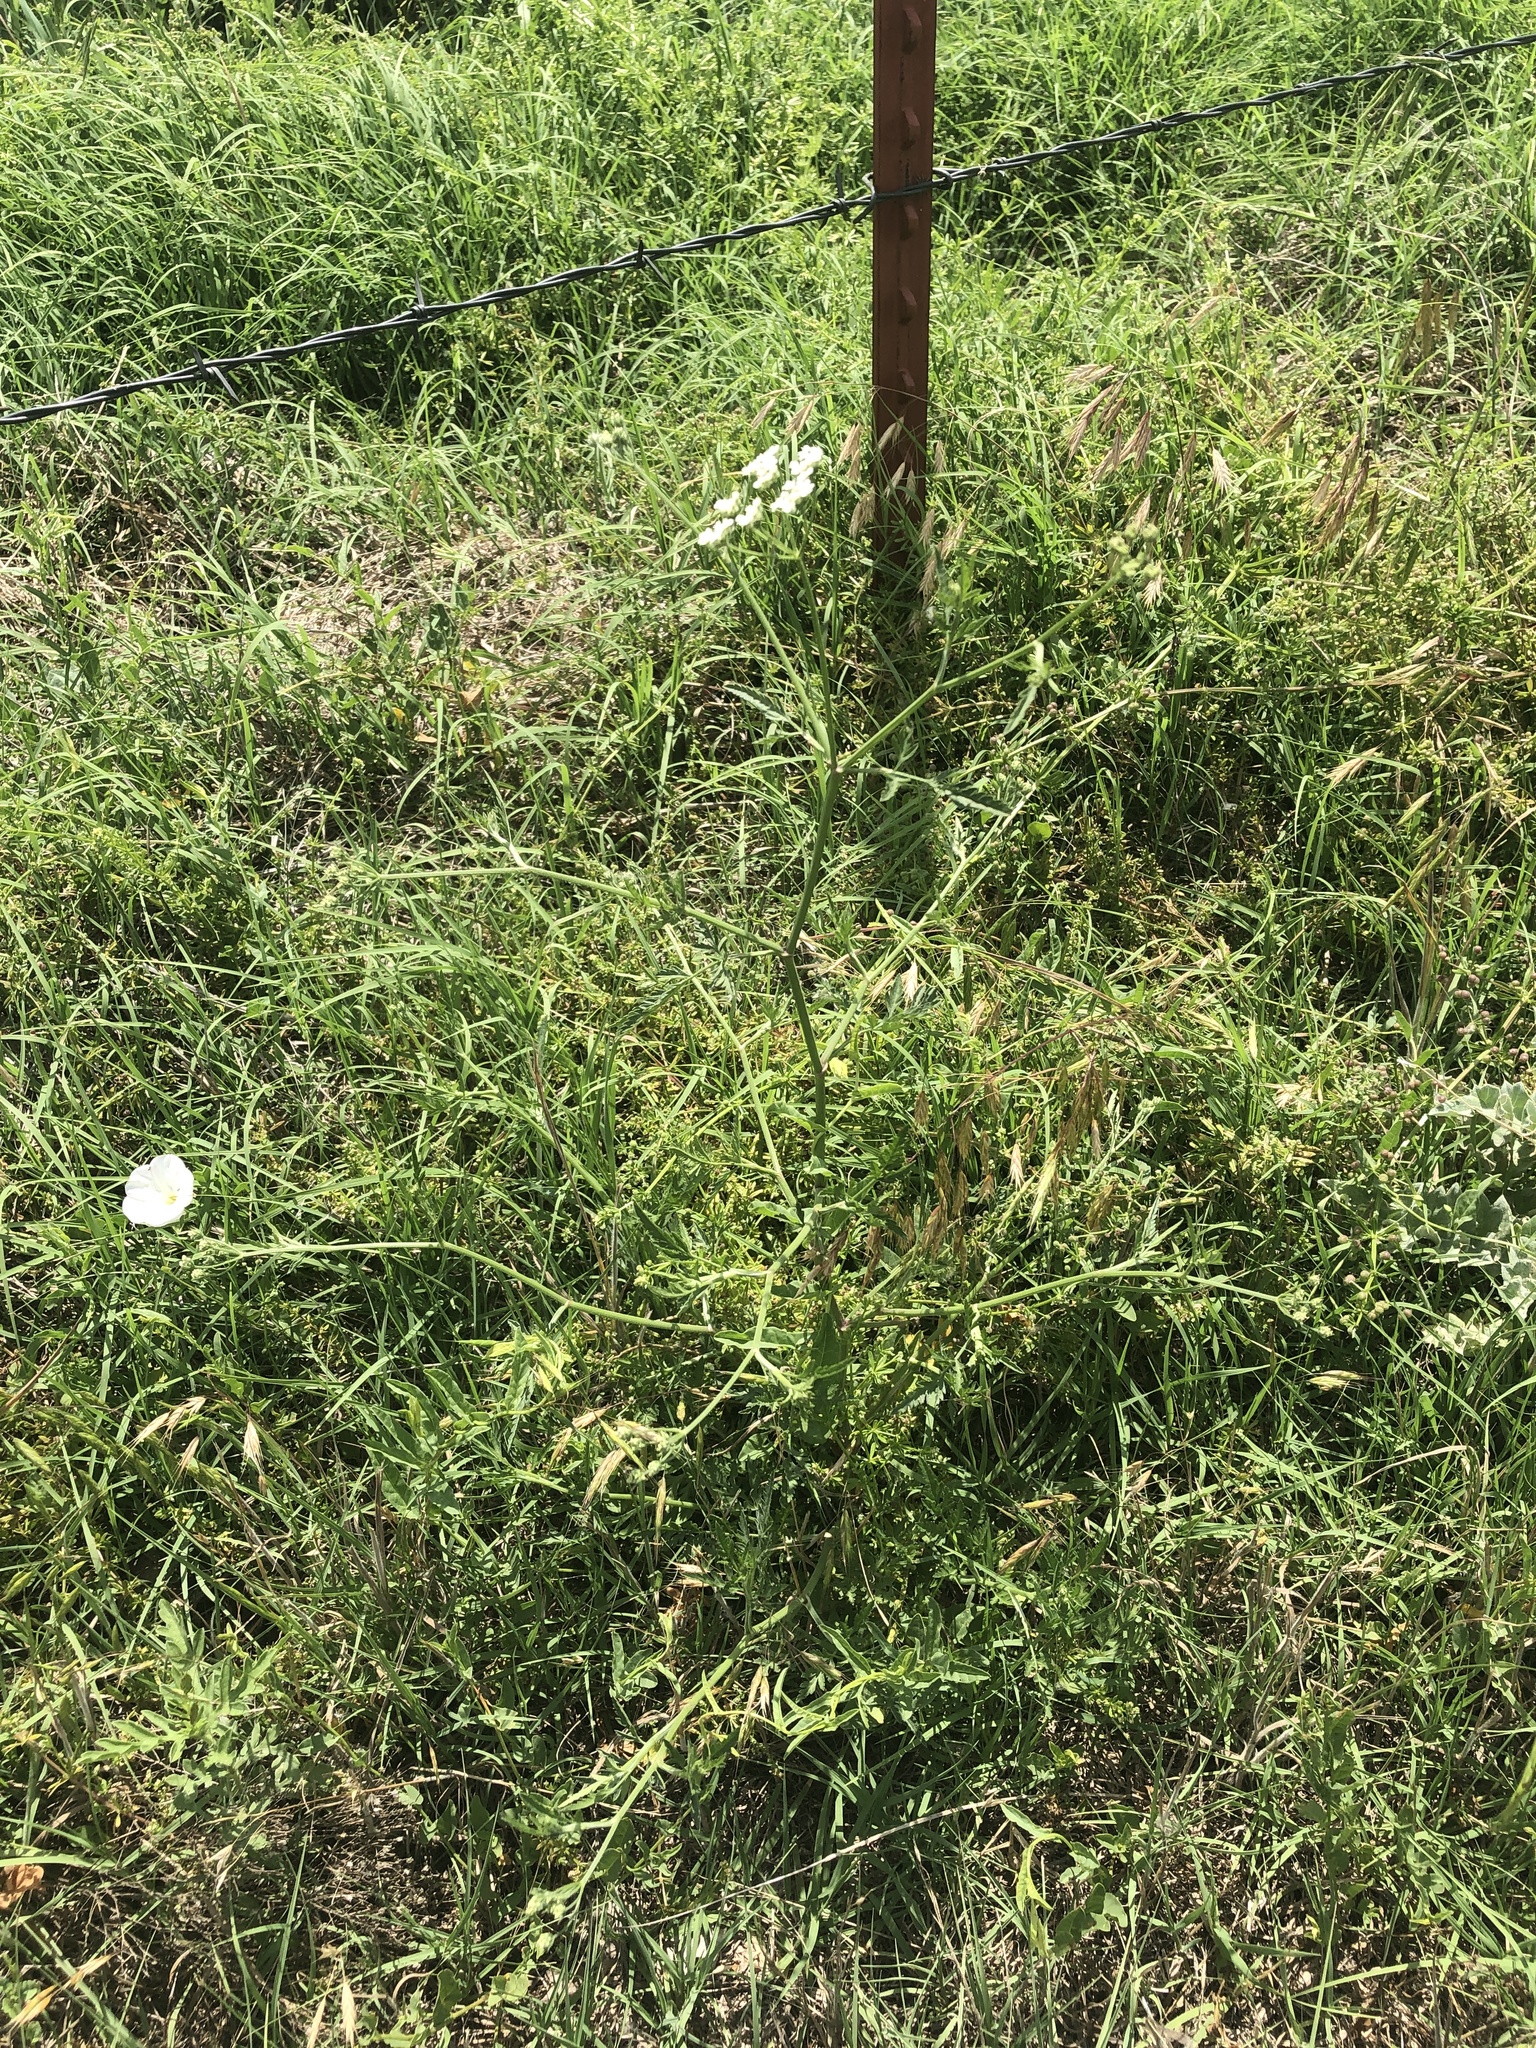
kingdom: Plantae
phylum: Tracheophyta
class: Magnoliopsida
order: Apiales
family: Apiaceae
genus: Torilis
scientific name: Torilis arvensis
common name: Spreading hedge-parsley
